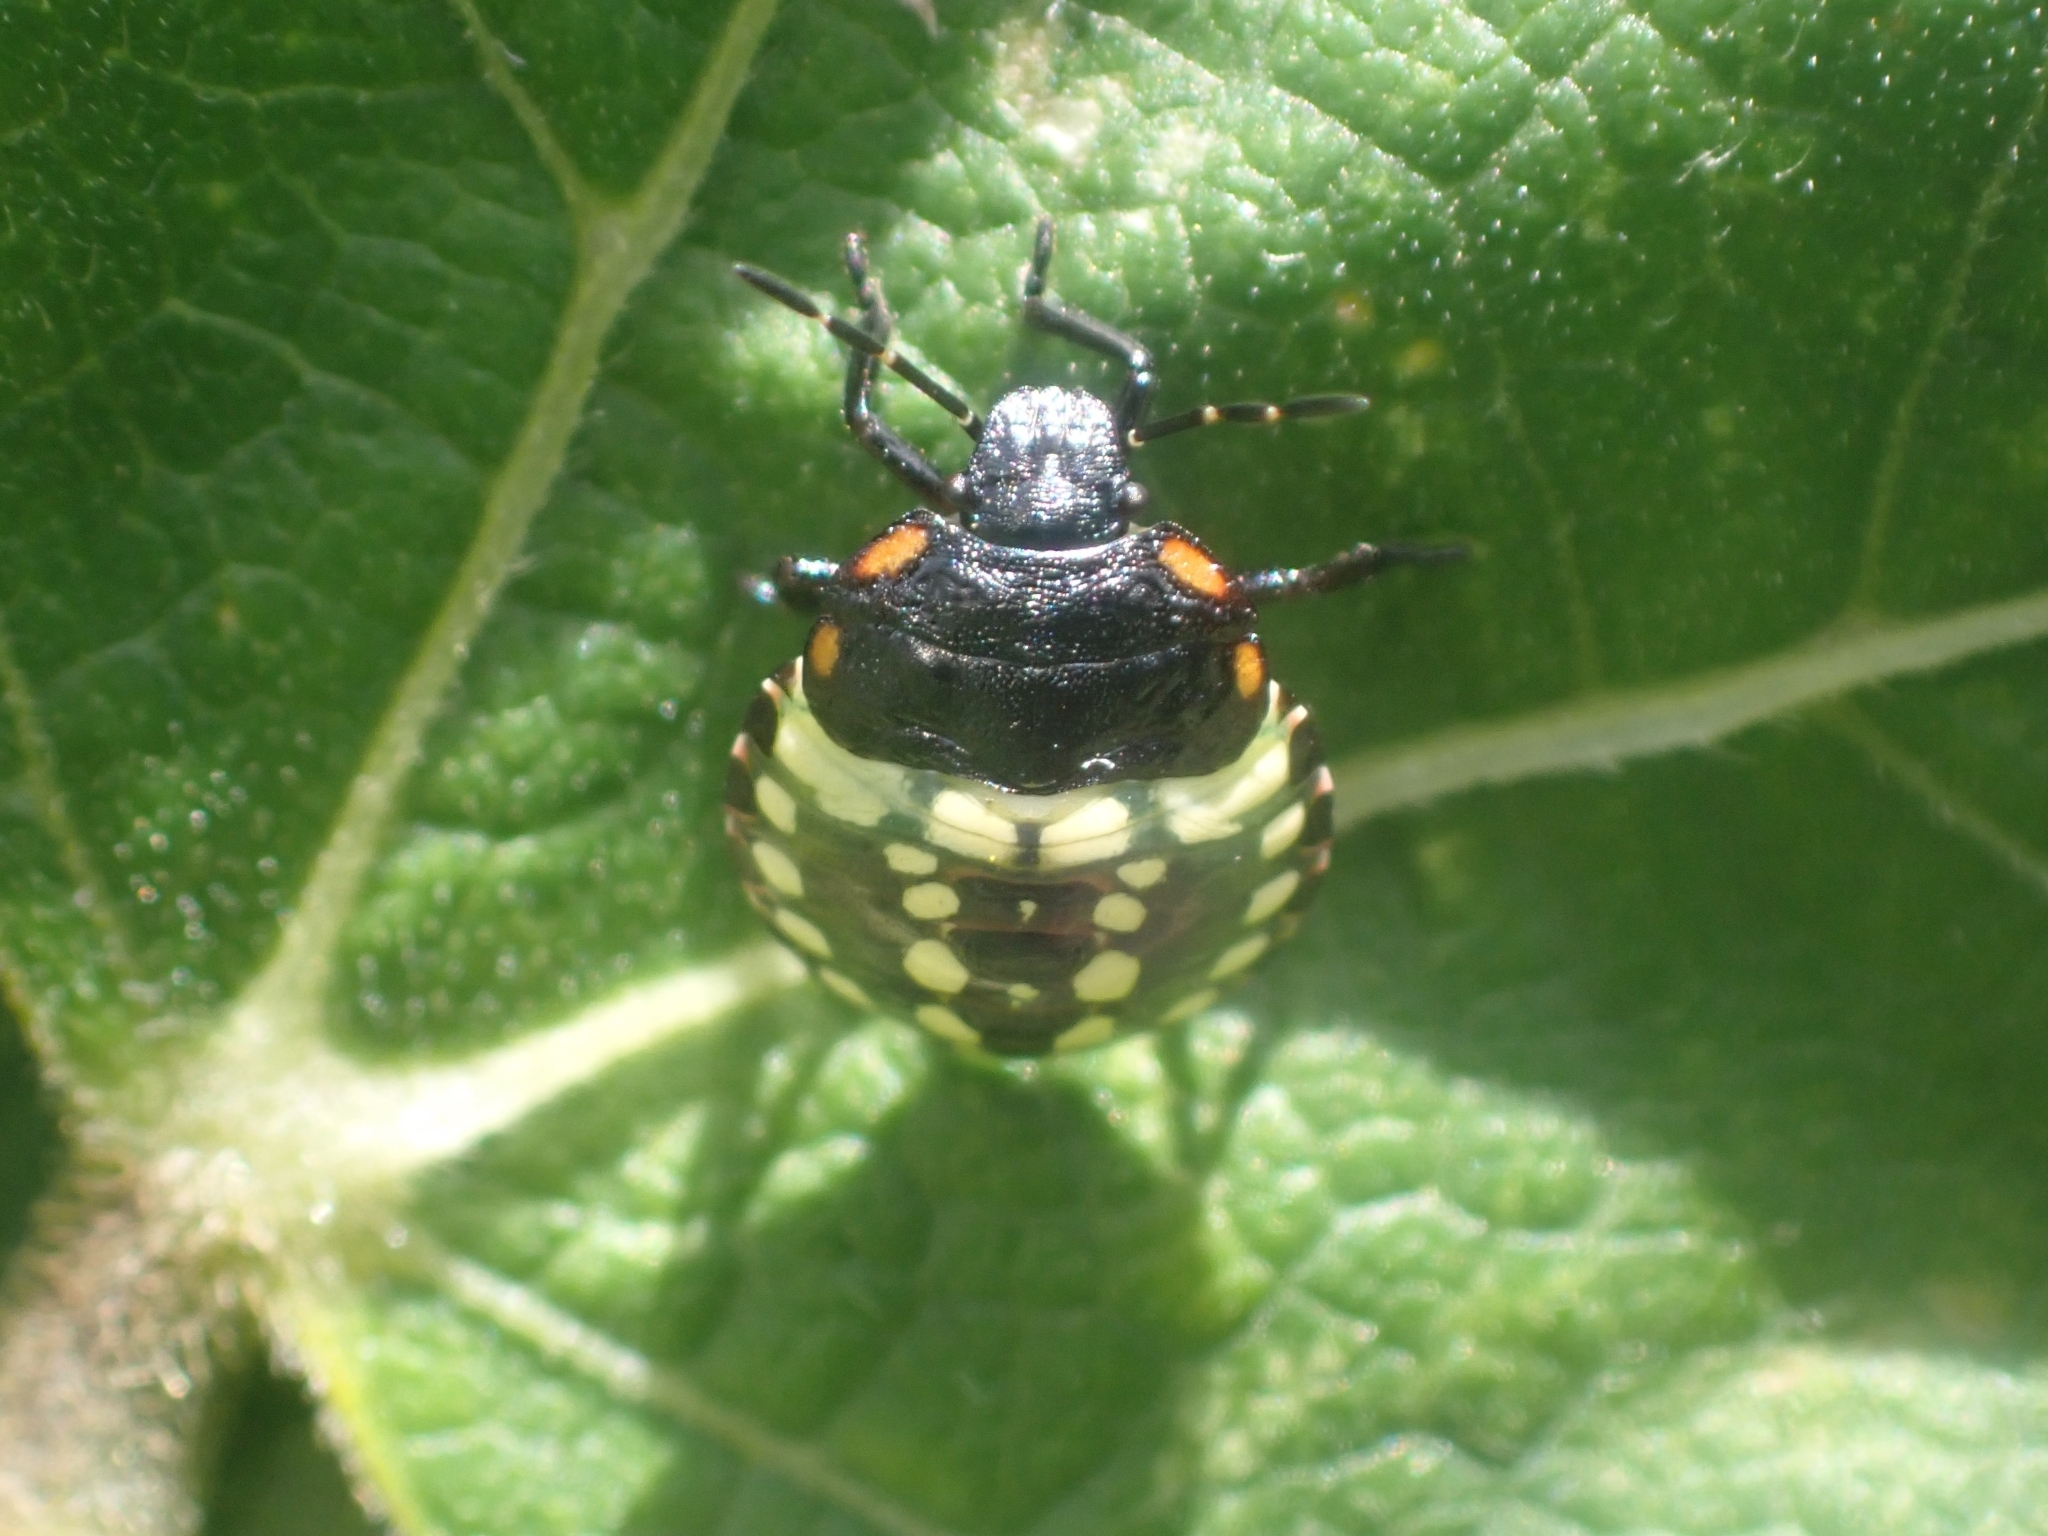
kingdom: Animalia
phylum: Arthropoda
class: Insecta
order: Hemiptera
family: Pentatomidae
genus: Nezara
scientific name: Nezara viridula
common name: Southern green stink bug
